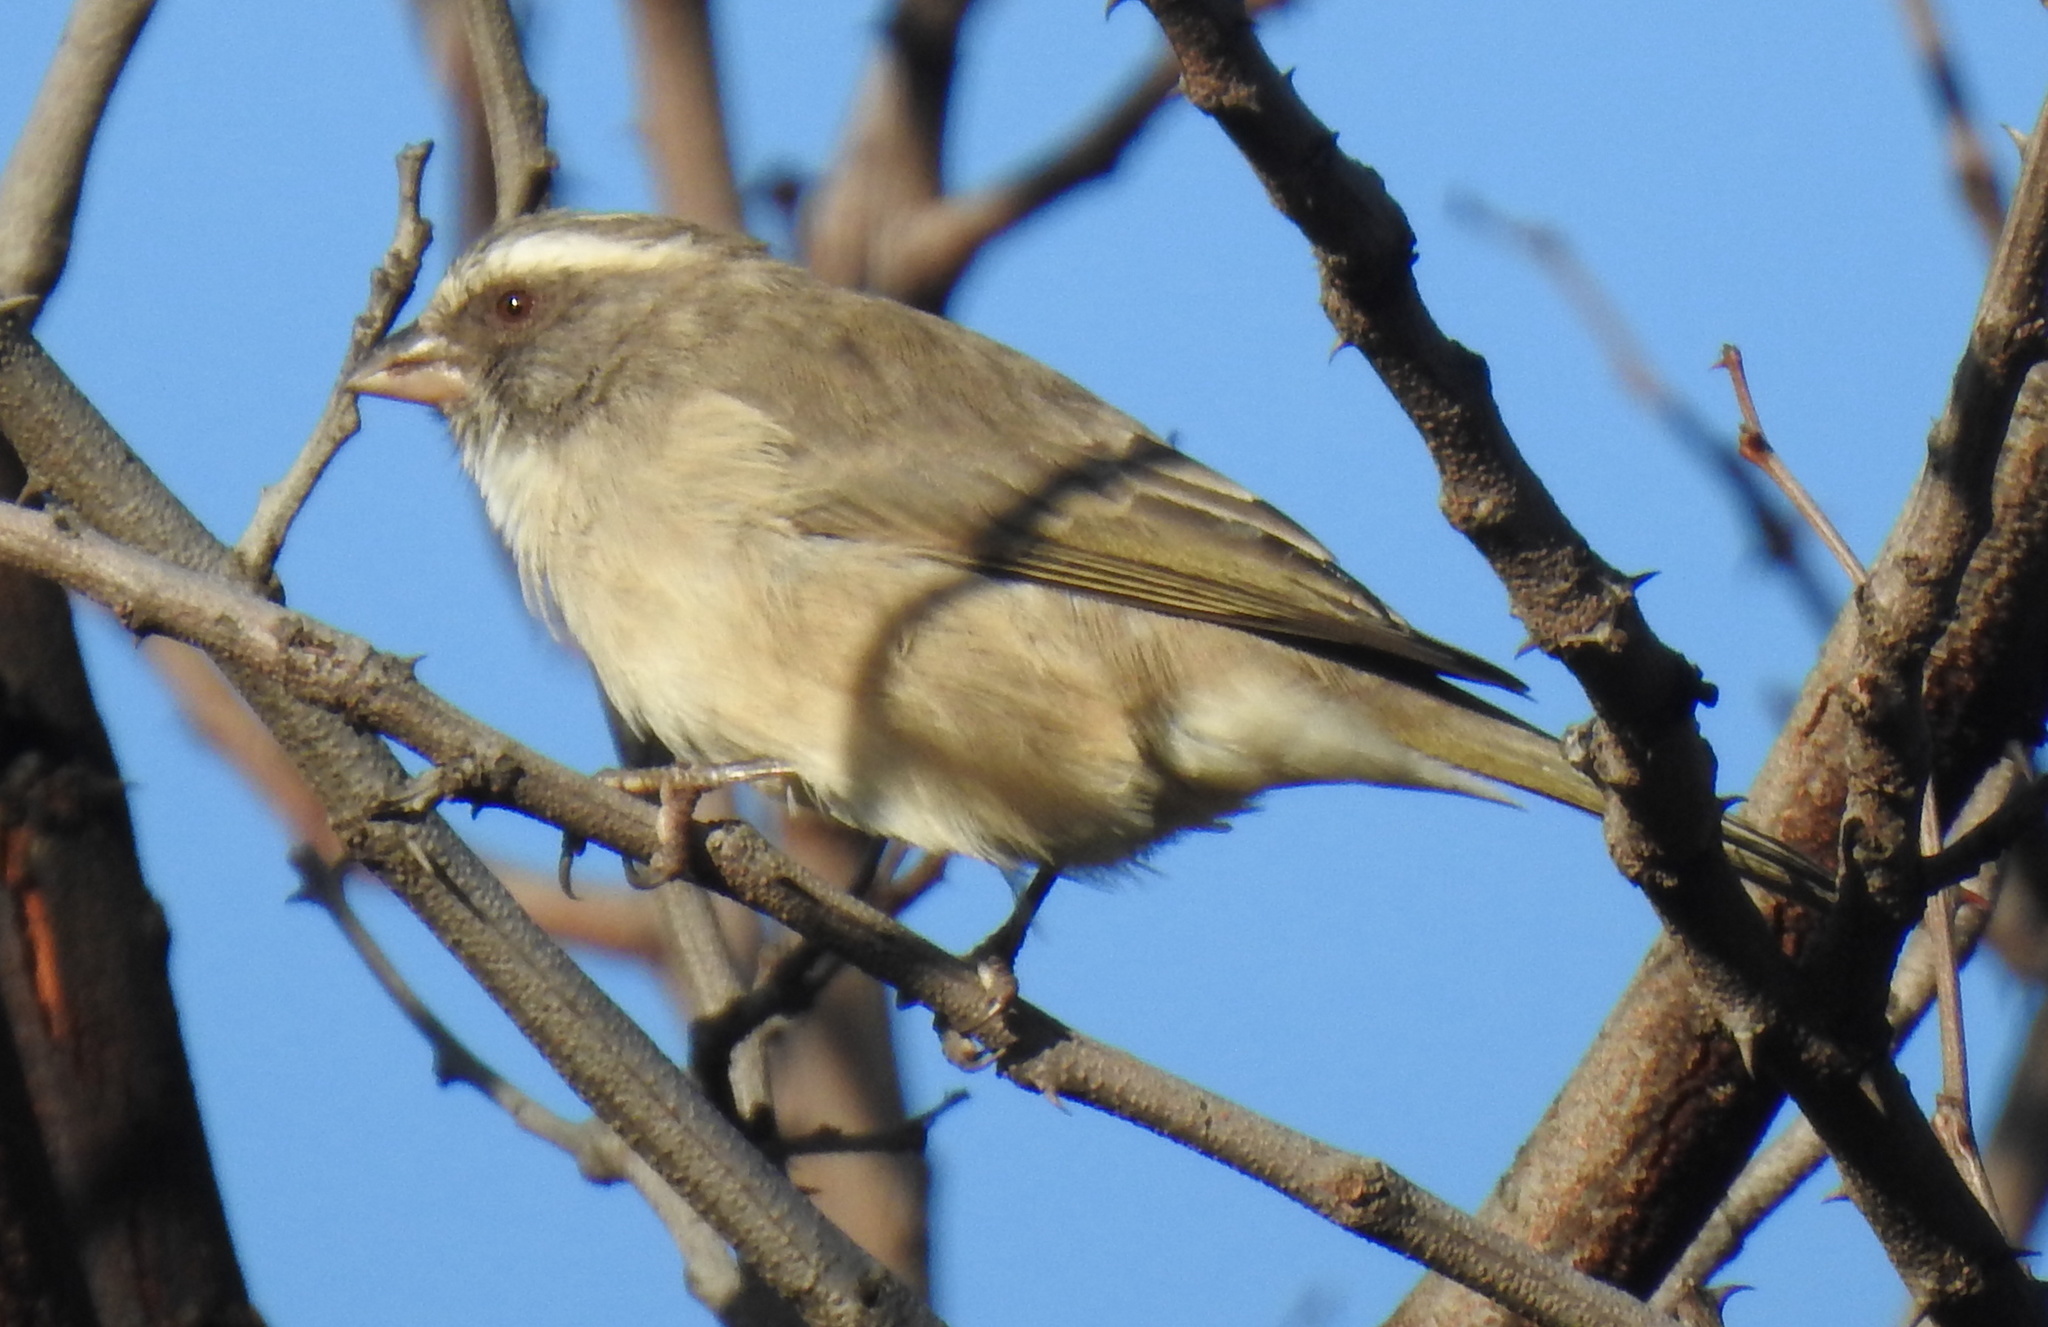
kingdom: Animalia
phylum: Chordata
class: Aves
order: Passeriformes
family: Fringillidae
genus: Crithagra
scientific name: Crithagra gularis
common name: Streaky-headed seedeater
